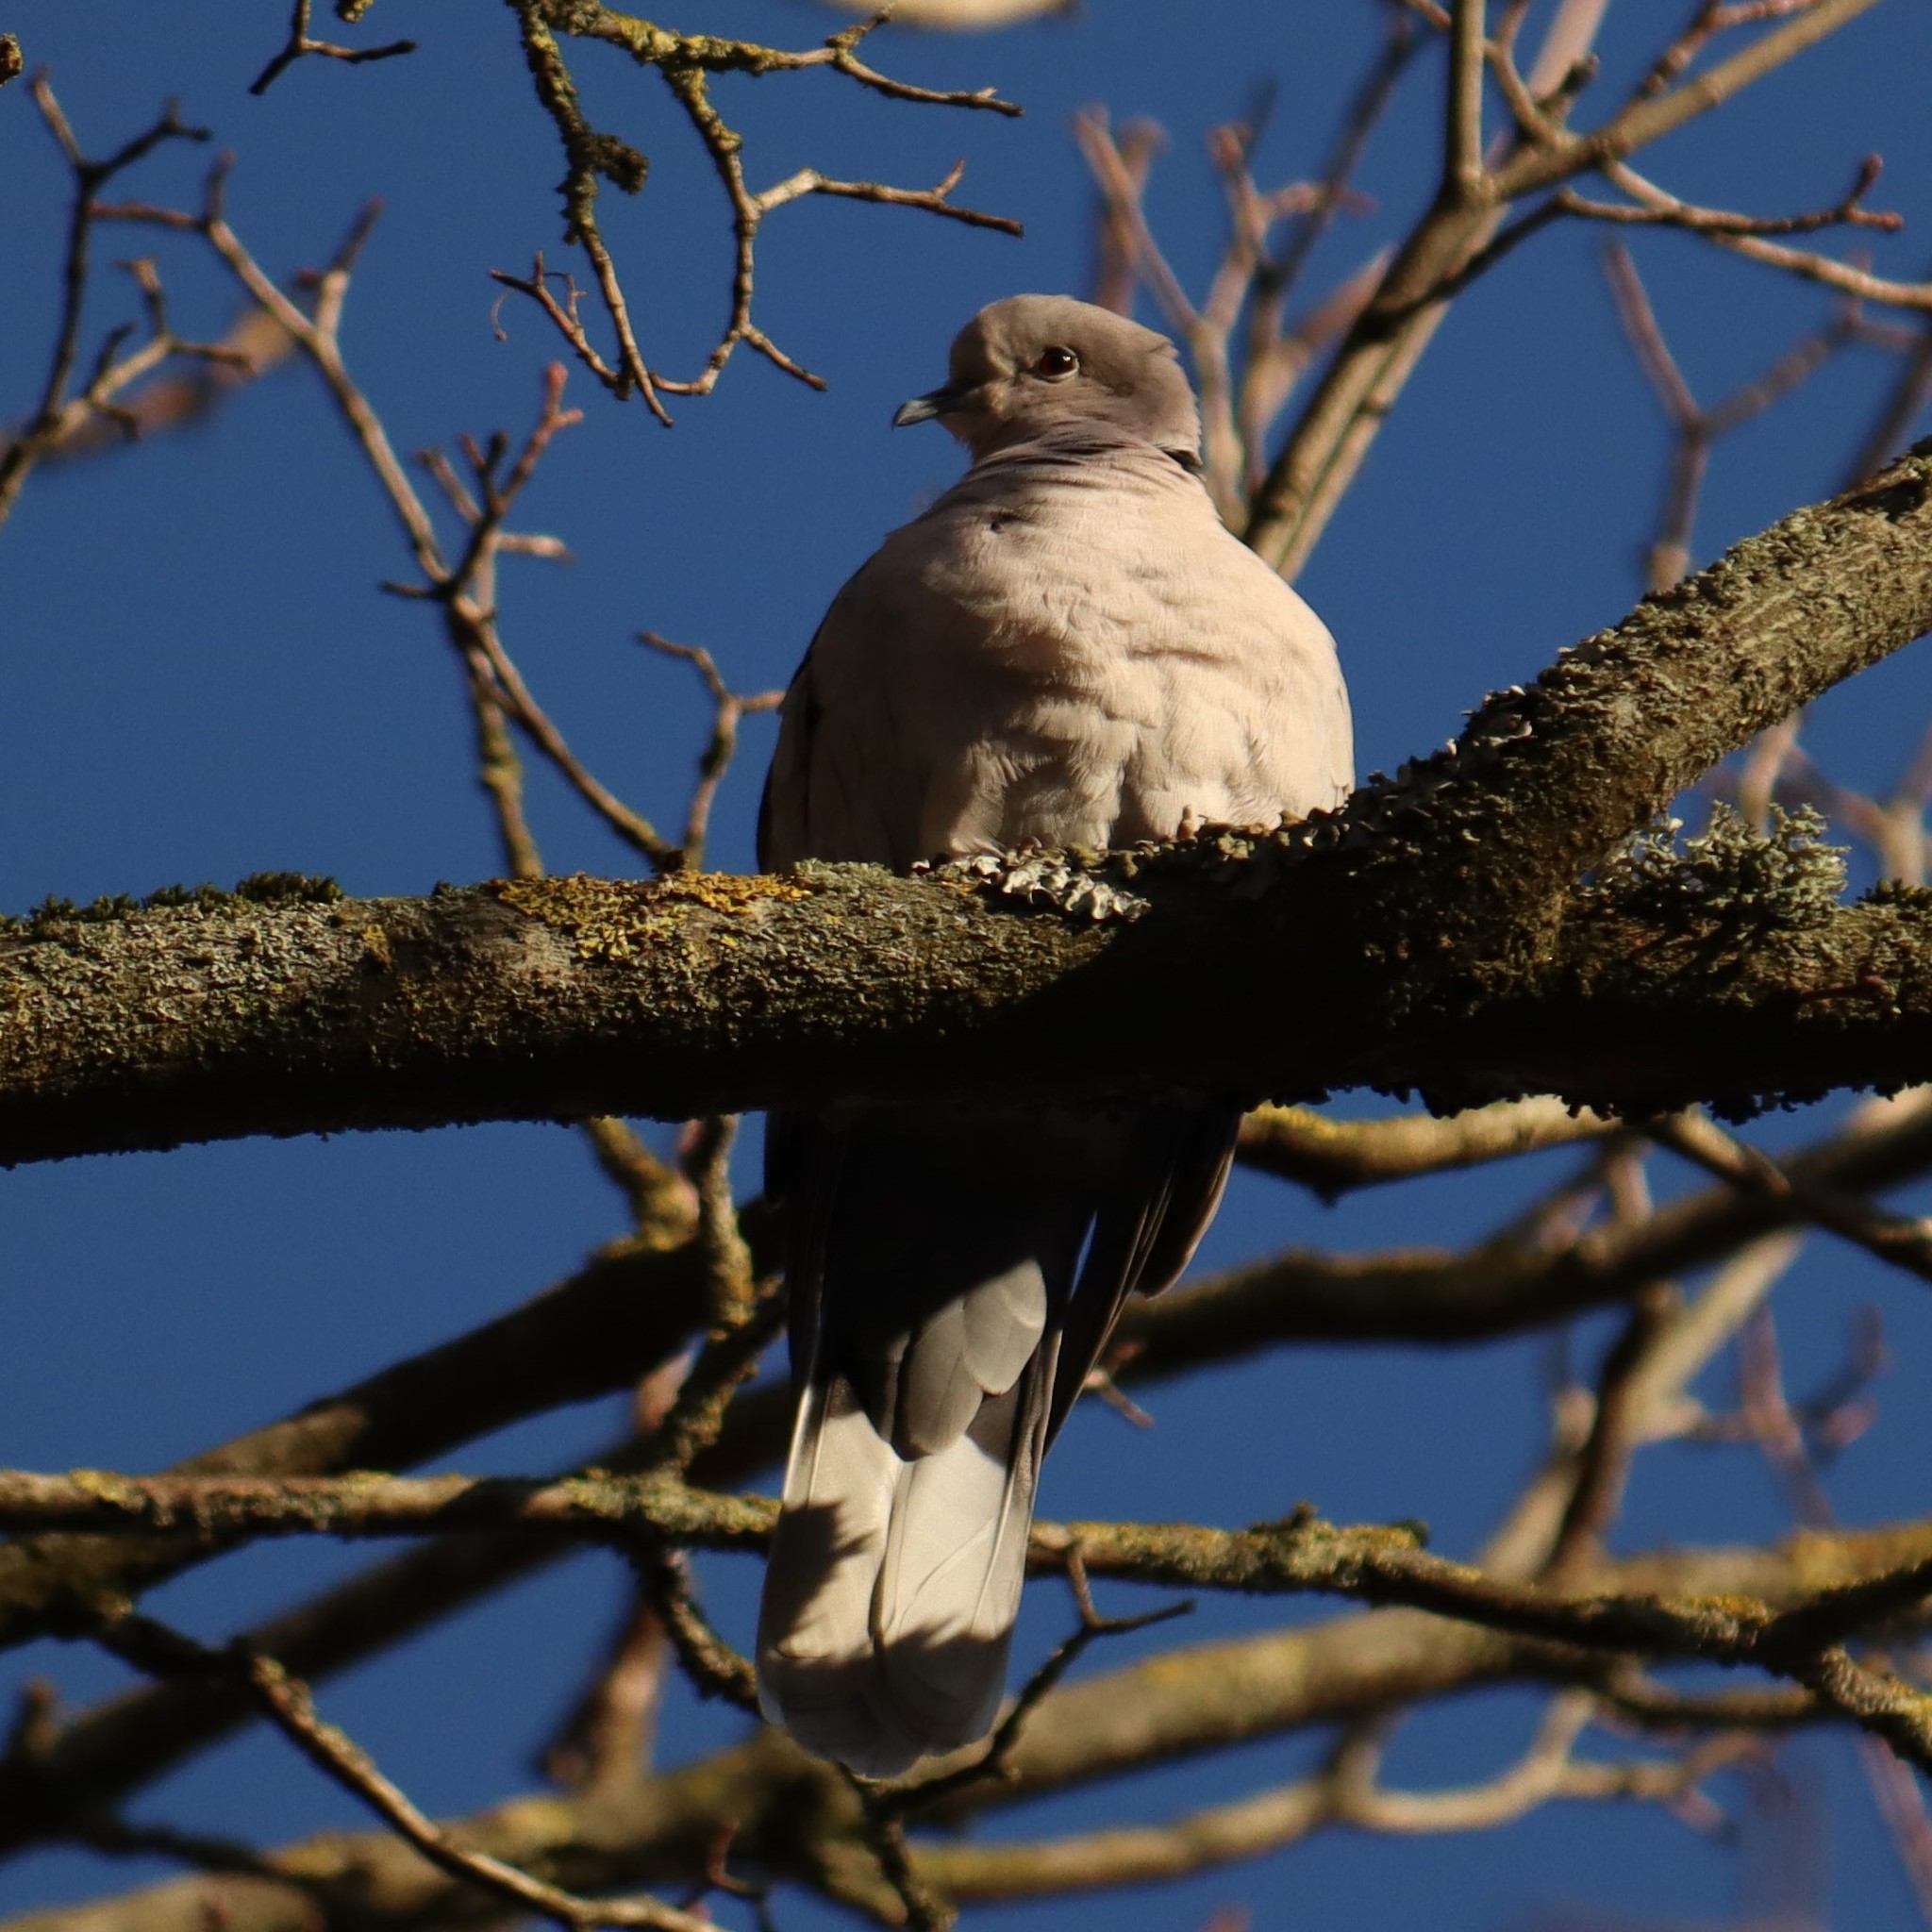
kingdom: Animalia
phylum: Chordata
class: Aves
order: Columbiformes
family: Columbidae
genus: Streptopelia
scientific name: Streptopelia decaocto
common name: Eurasian collared dove
